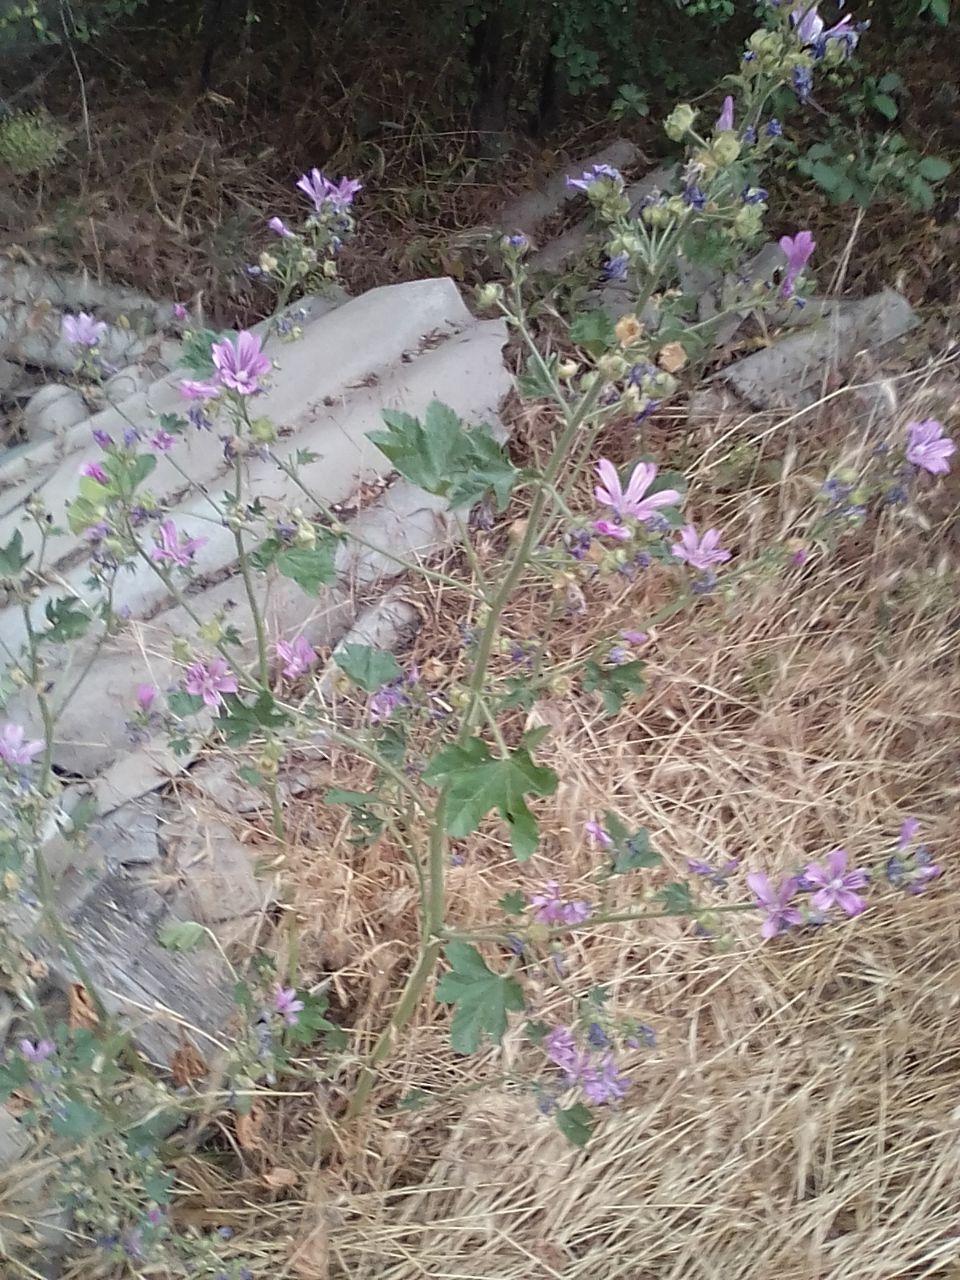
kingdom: Plantae
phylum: Tracheophyta
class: Magnoliopsida
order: Malvales
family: Malvaceae
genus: Malva
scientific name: Malva sylvestris
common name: Common mallow
